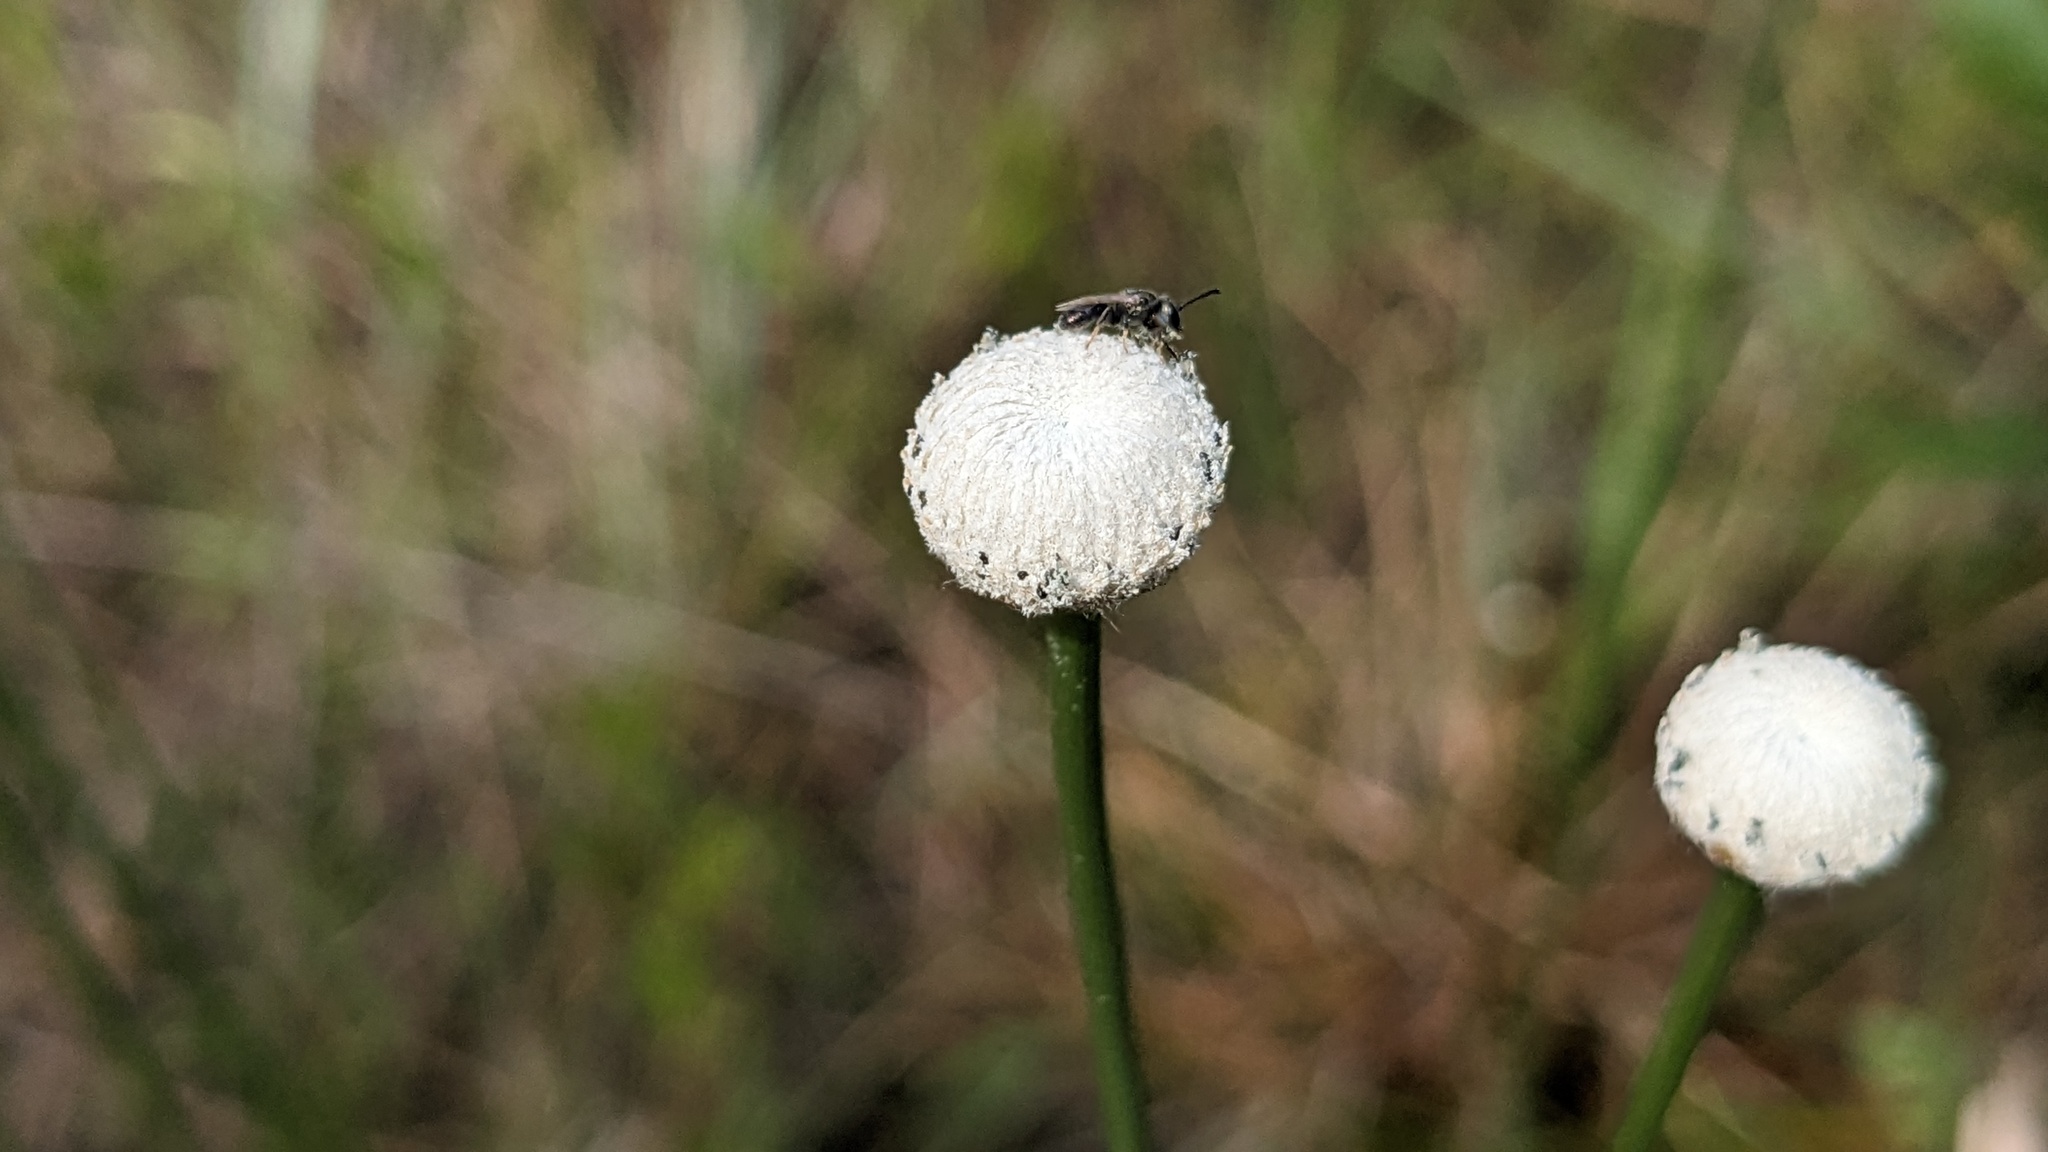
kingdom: Plantae
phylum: Tracheophyta
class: Liliopsida
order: Poales
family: Eriocaulaceae
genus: Eriocaulon
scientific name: Eriocaulon decangulare
